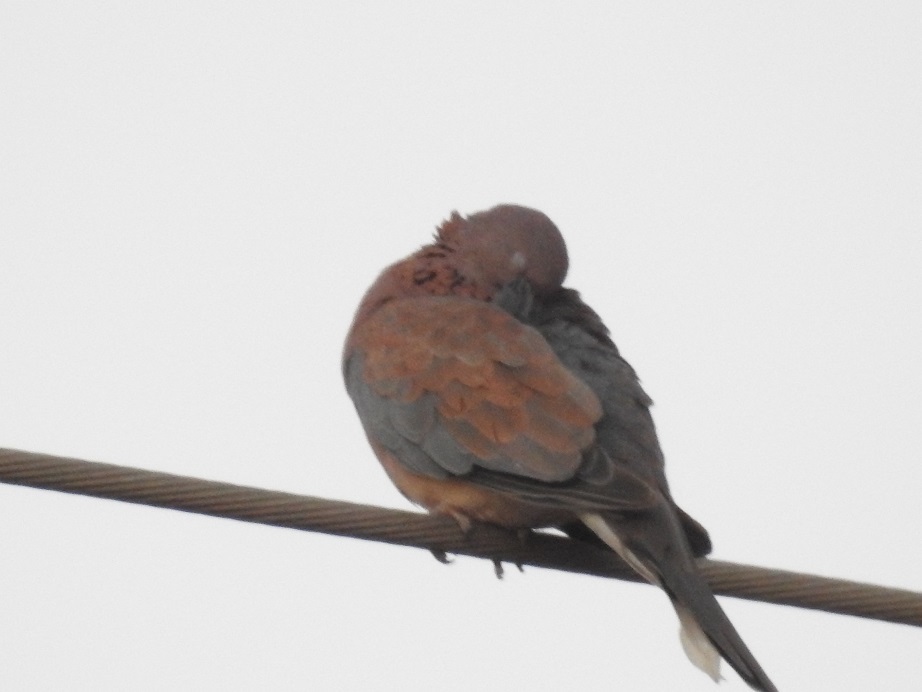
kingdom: Animalia
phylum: Chordata
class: Aves
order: Columbiformes
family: Columbidae
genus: Spilopelia
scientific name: Spilopelia senegalensis
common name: Laughing dove
